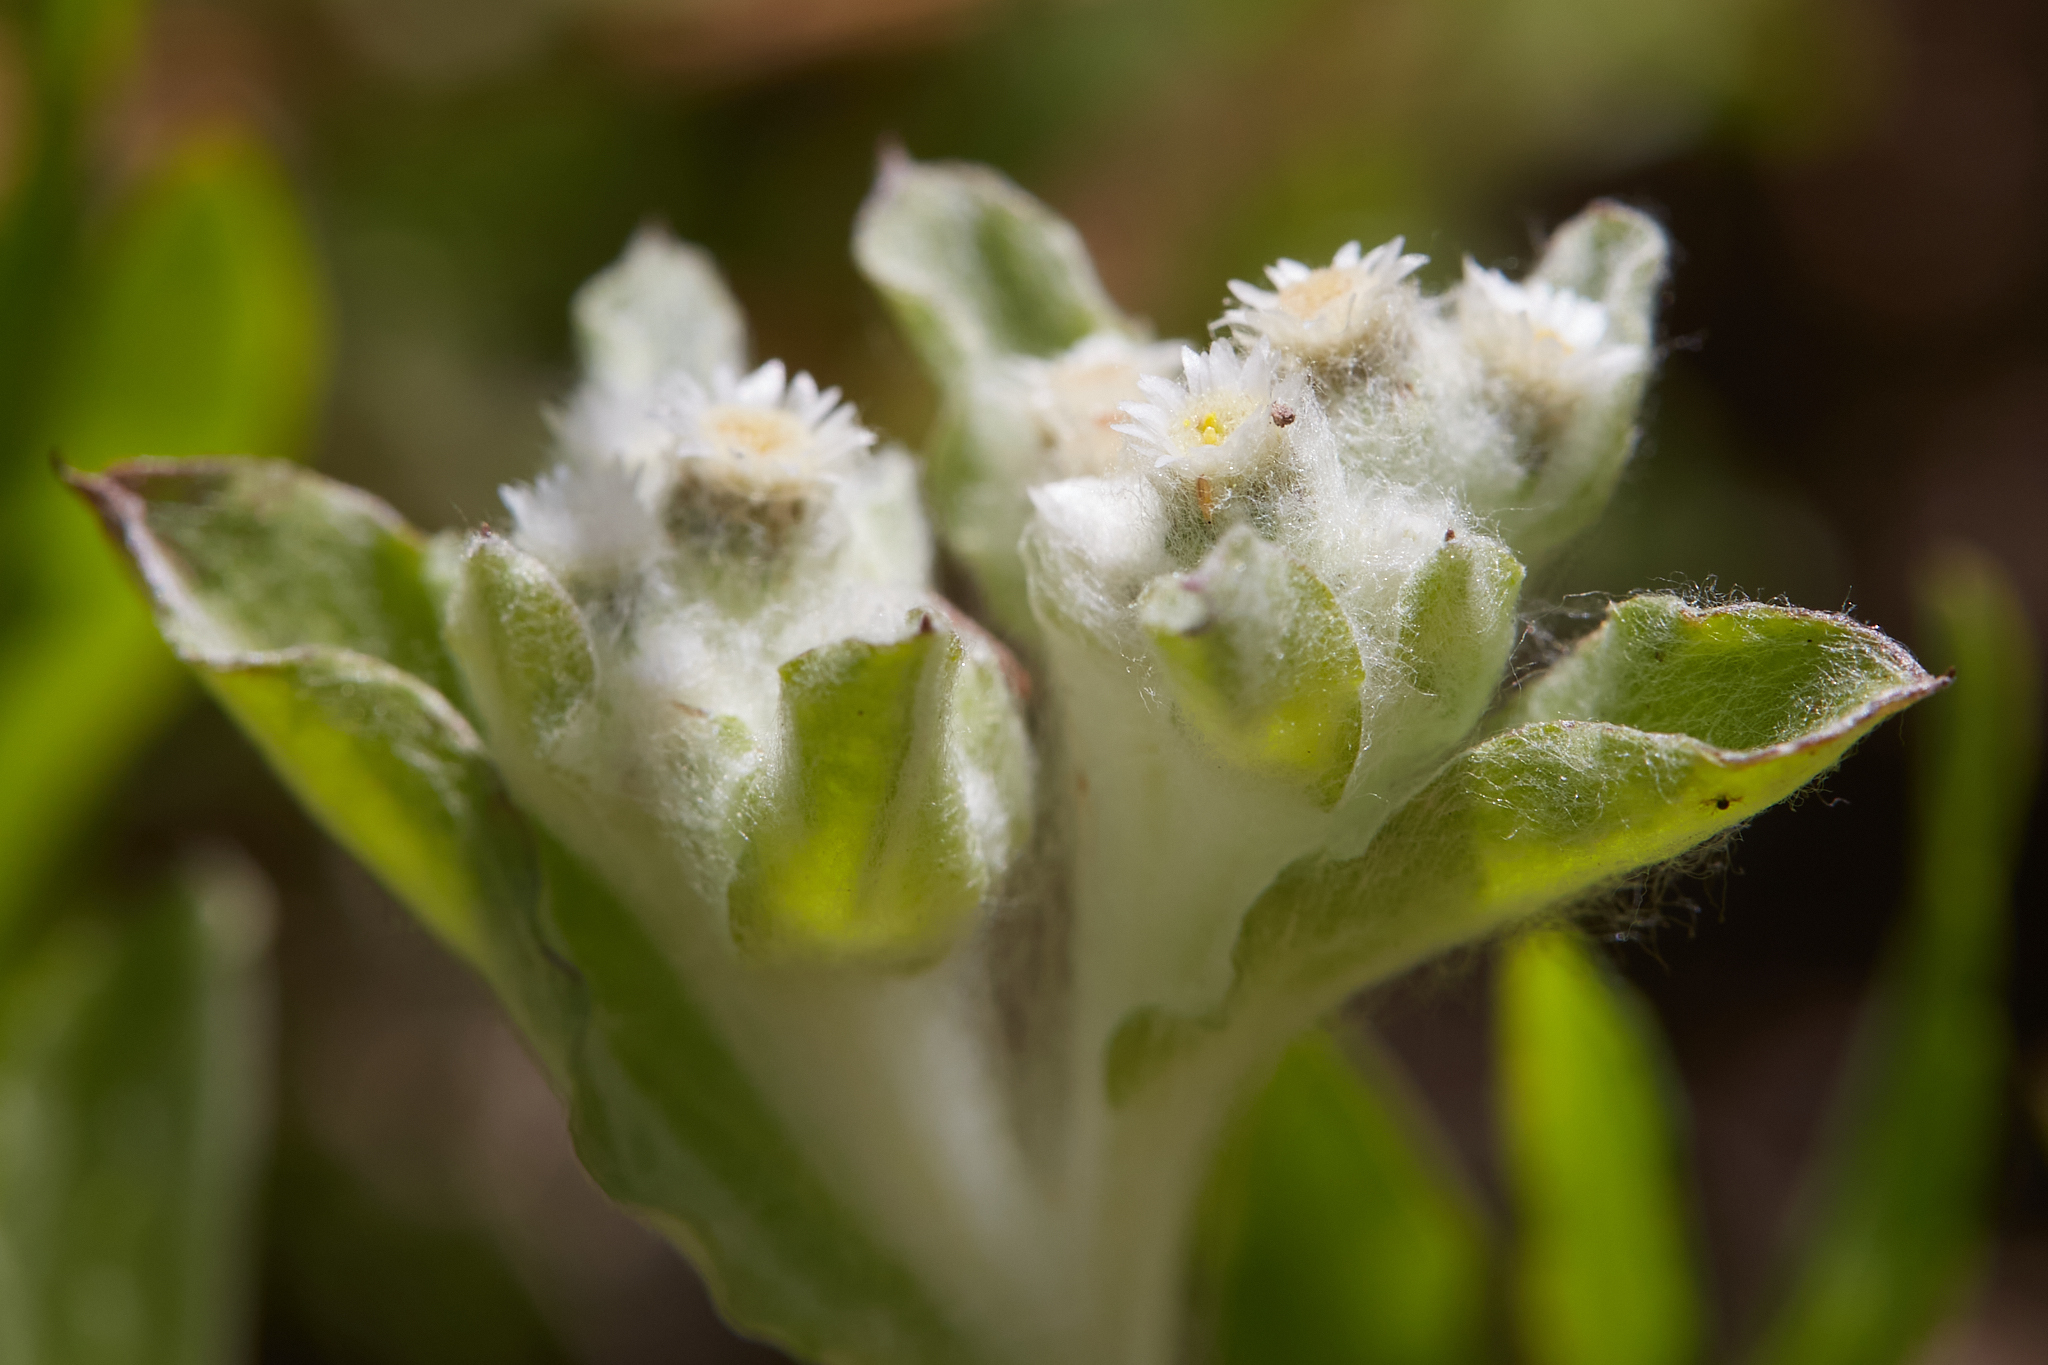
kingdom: Plantae
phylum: Tracheophyta
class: Magnoliopsida
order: Asterales
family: Asteraceae
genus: Gnaphalium
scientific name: Gnaphalium palustre
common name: Western marsh cudweed
